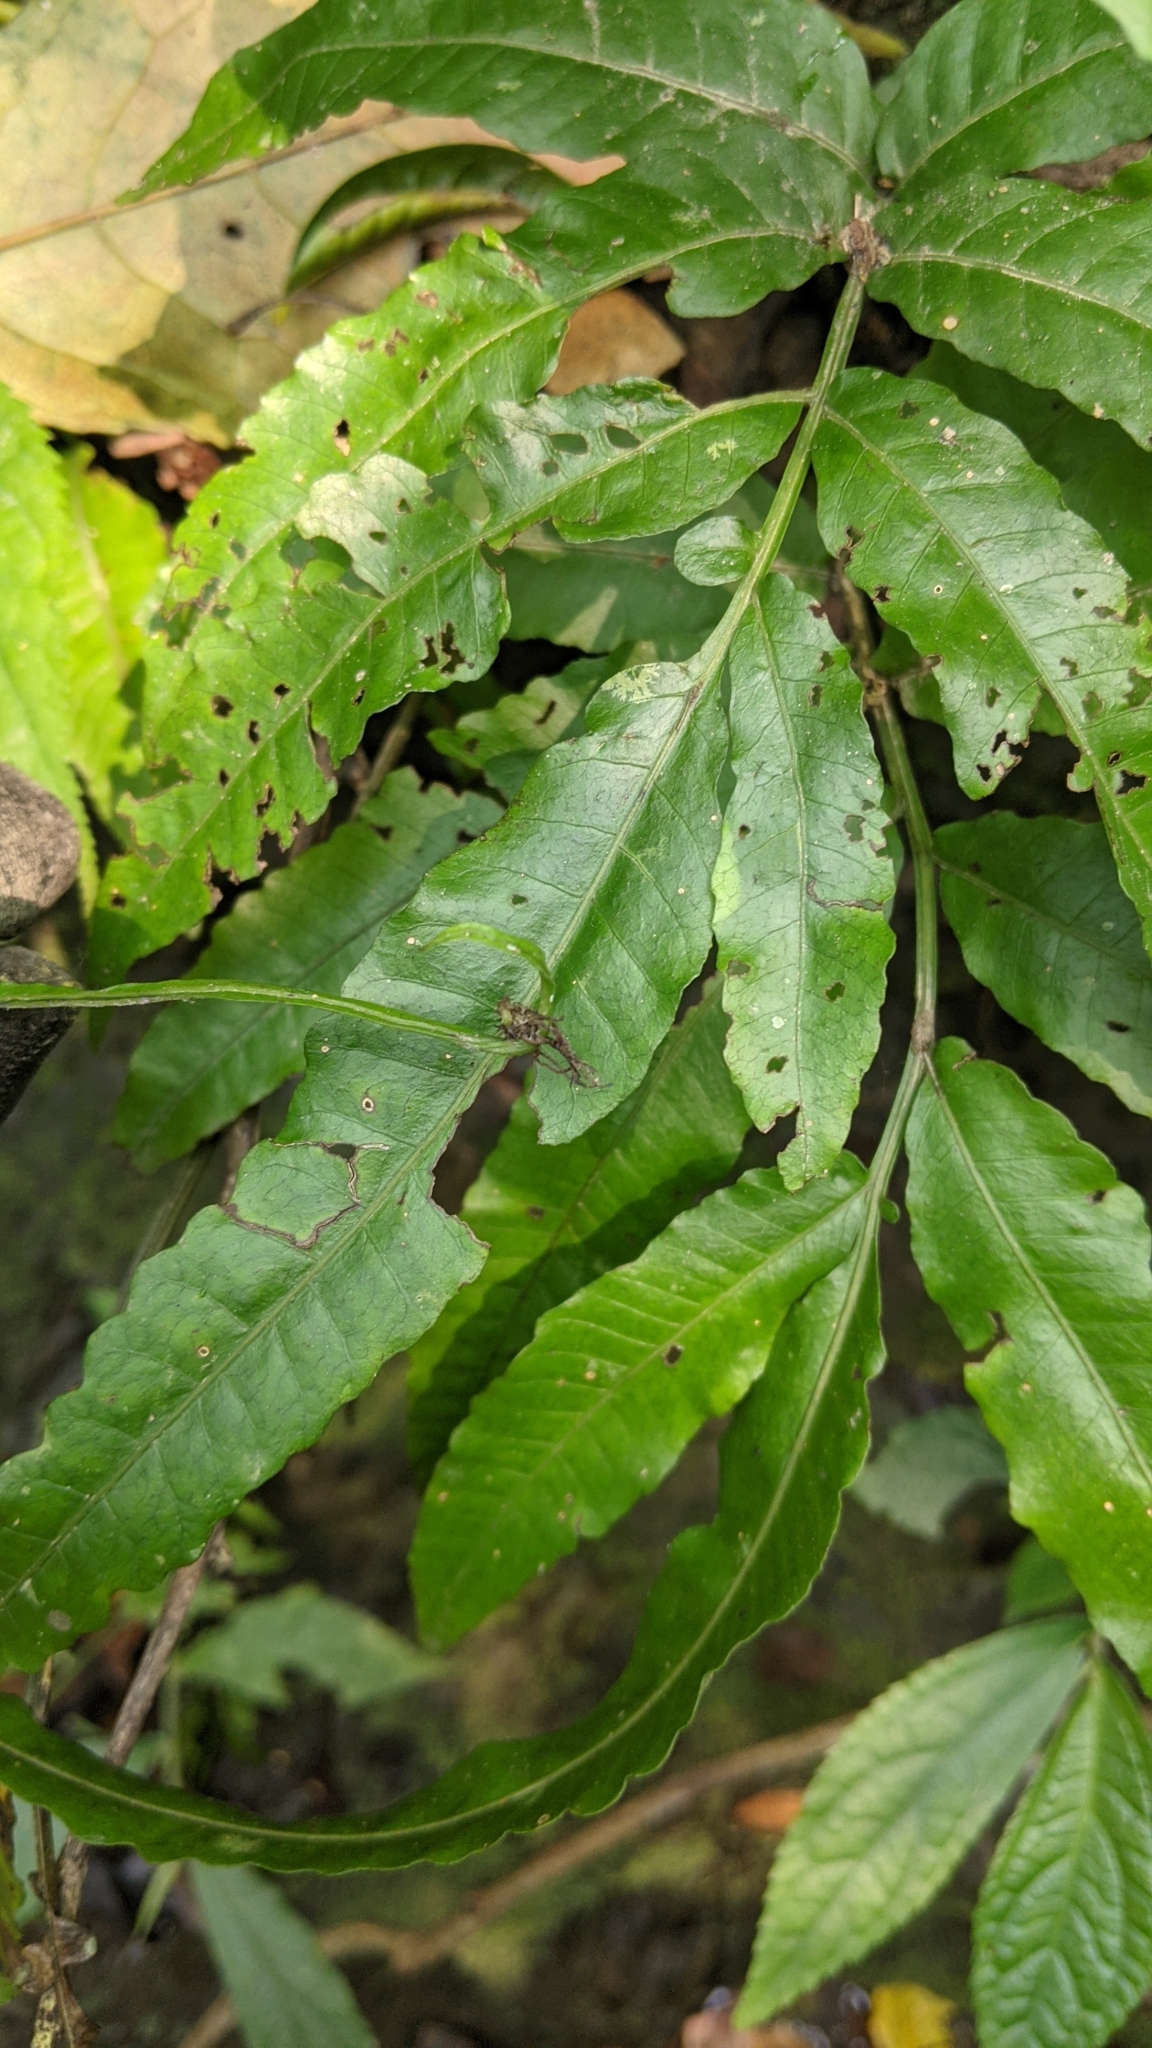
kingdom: Plantae
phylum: Tracheophyta
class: Polypodiopsida
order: Polypodiales
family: Dryopteridaceae
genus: Bolbitis
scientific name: Bolbitis heteroclita
